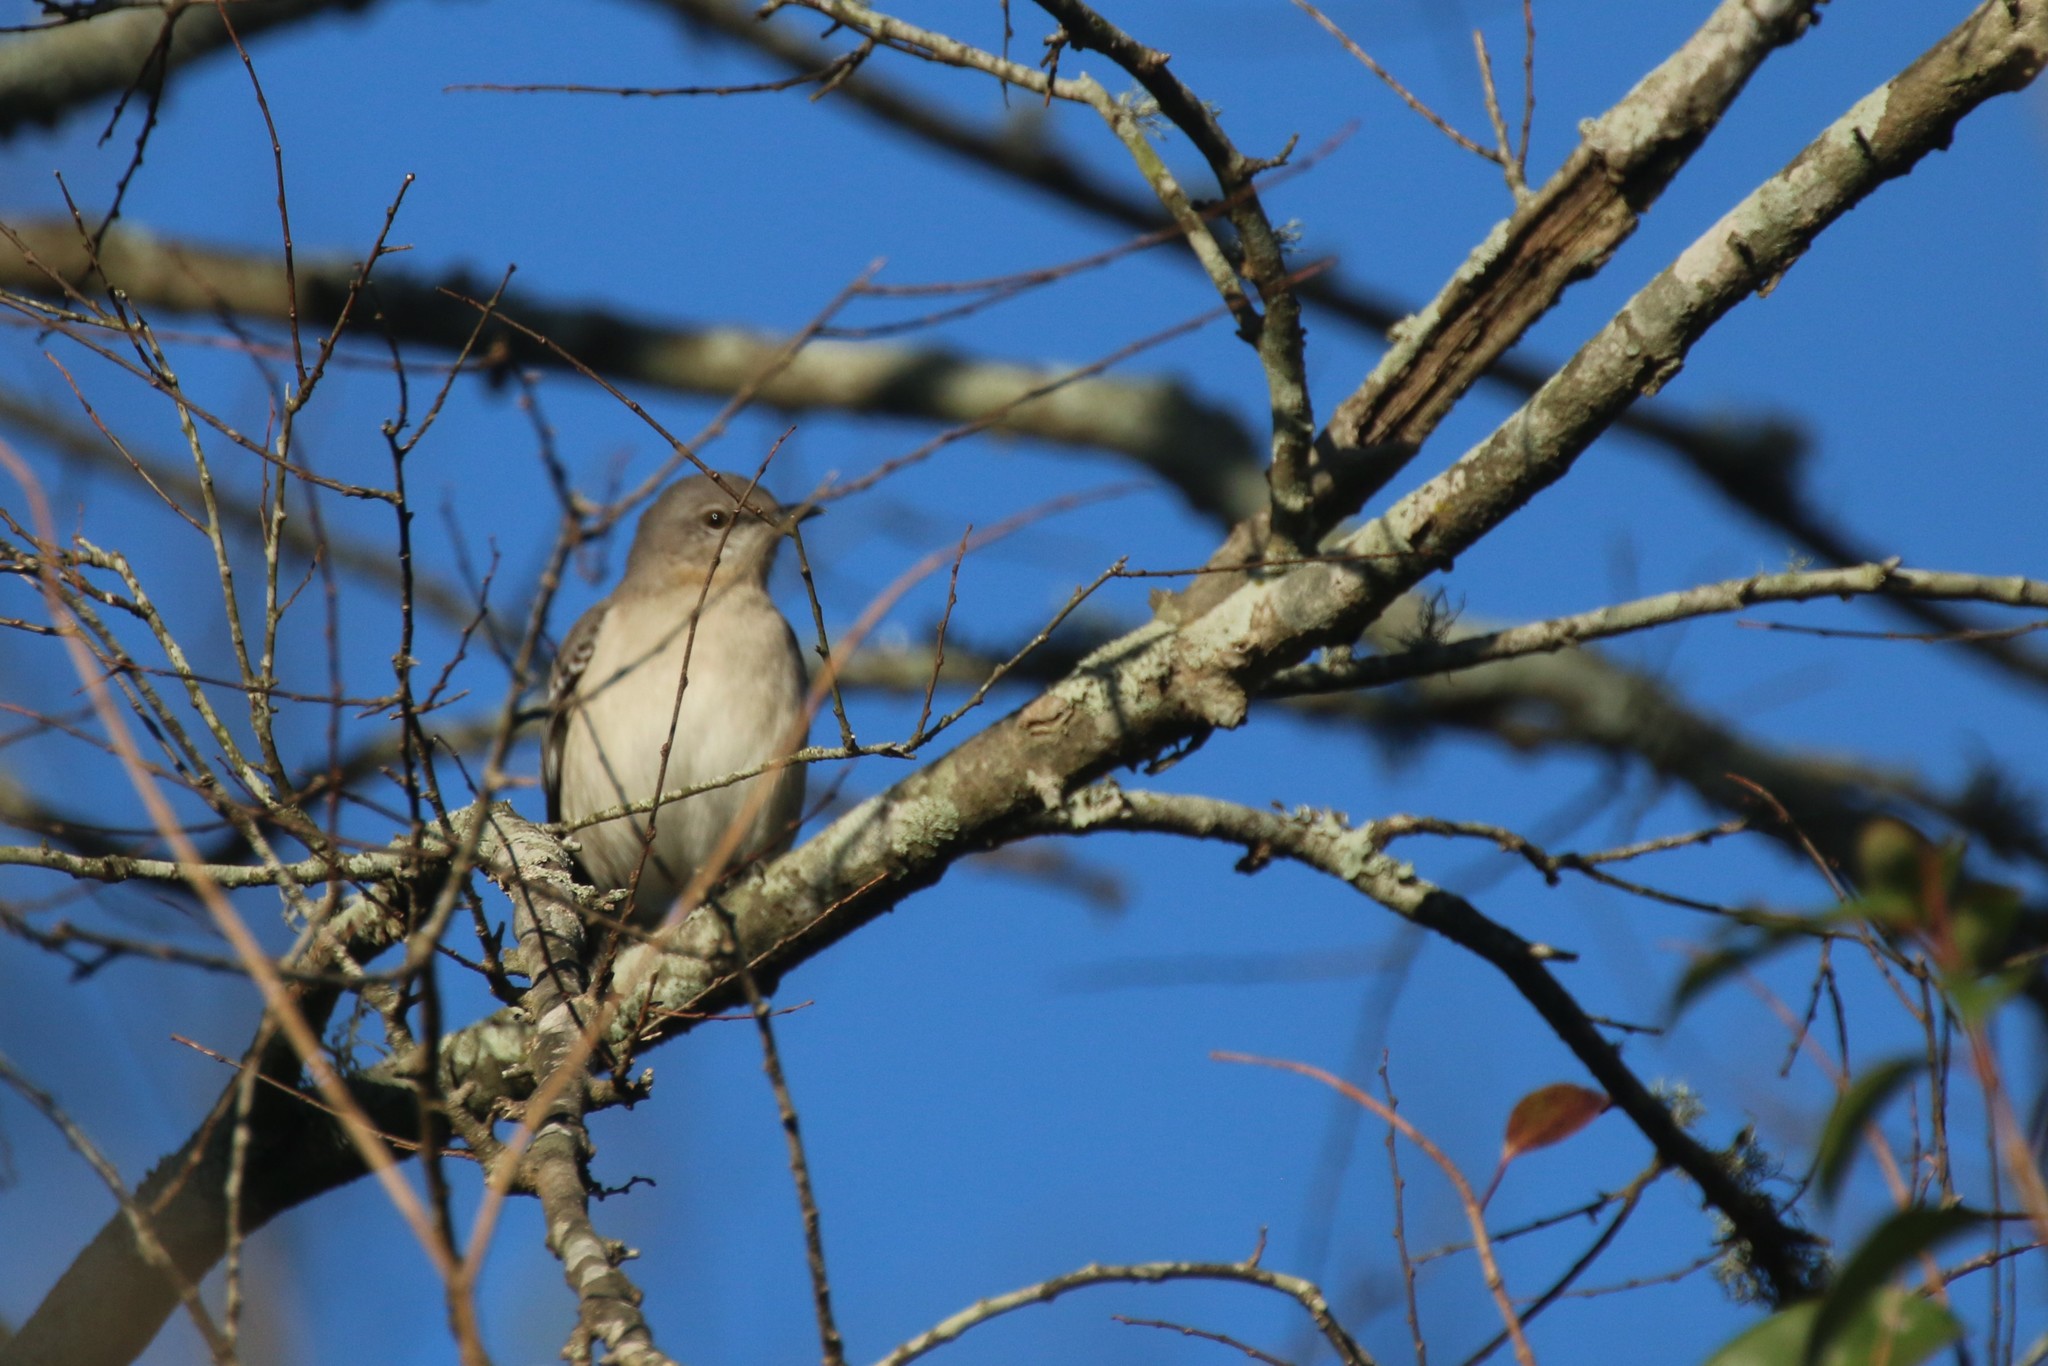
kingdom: Animalia
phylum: Chordata
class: Aves
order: Passeriformes
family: Mimidae
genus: Mimus
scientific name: Mimus polyglottos
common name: Northern mockingbird
